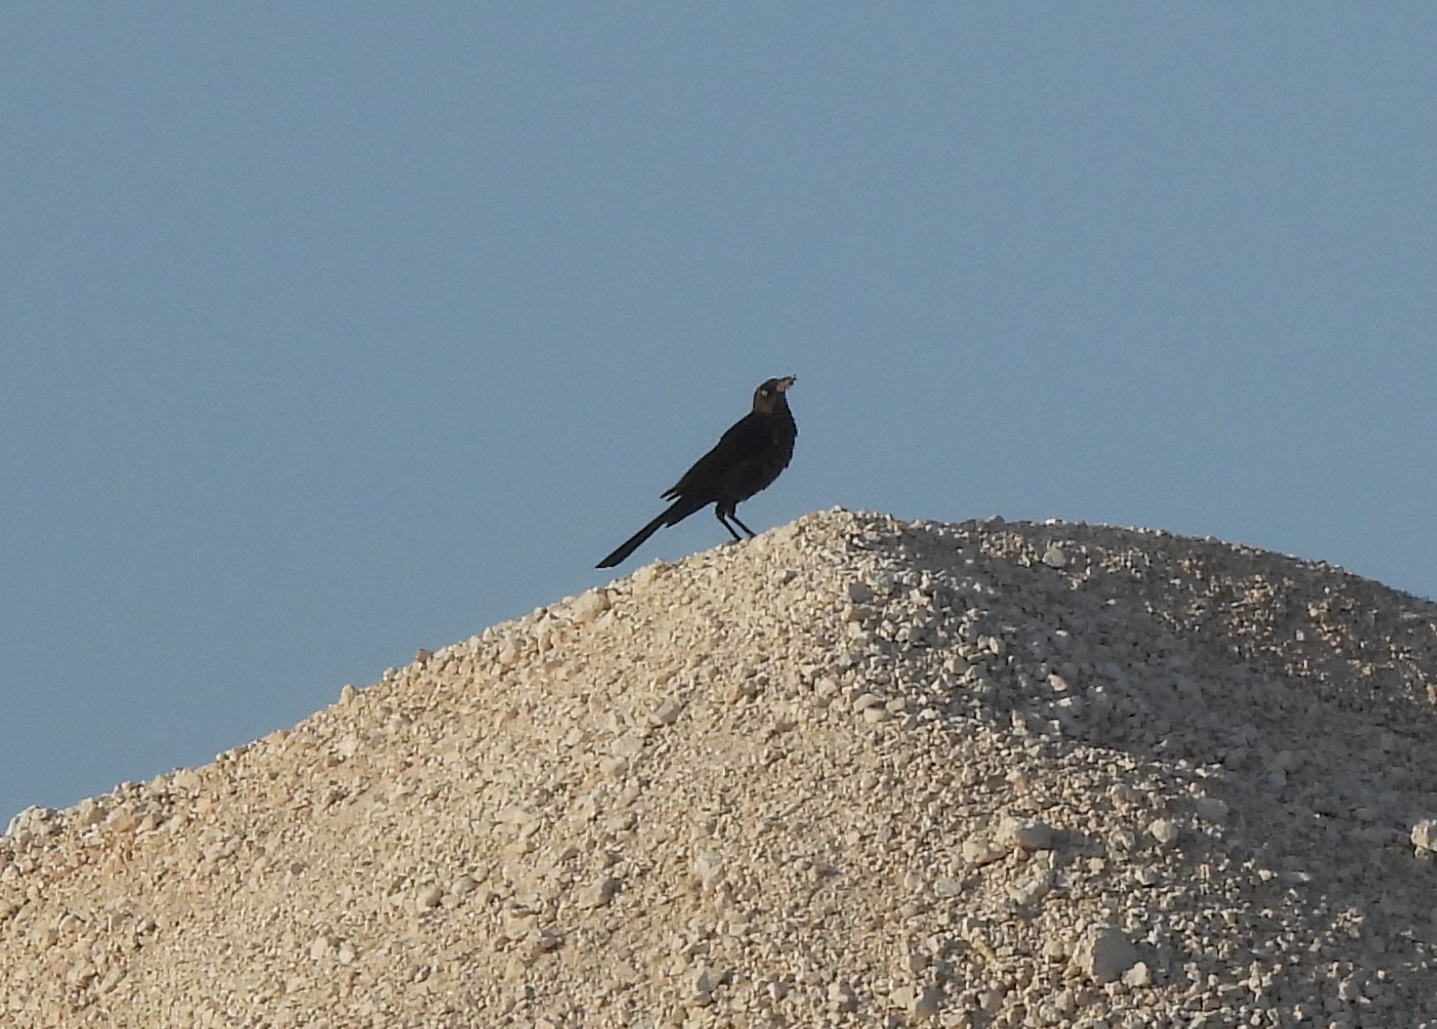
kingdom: Animalia
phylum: Chordata
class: Aves
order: Passeriformes
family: Icteridae
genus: Quiscalus
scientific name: Quiscalus mexicanus
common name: Great-tailed grackle
